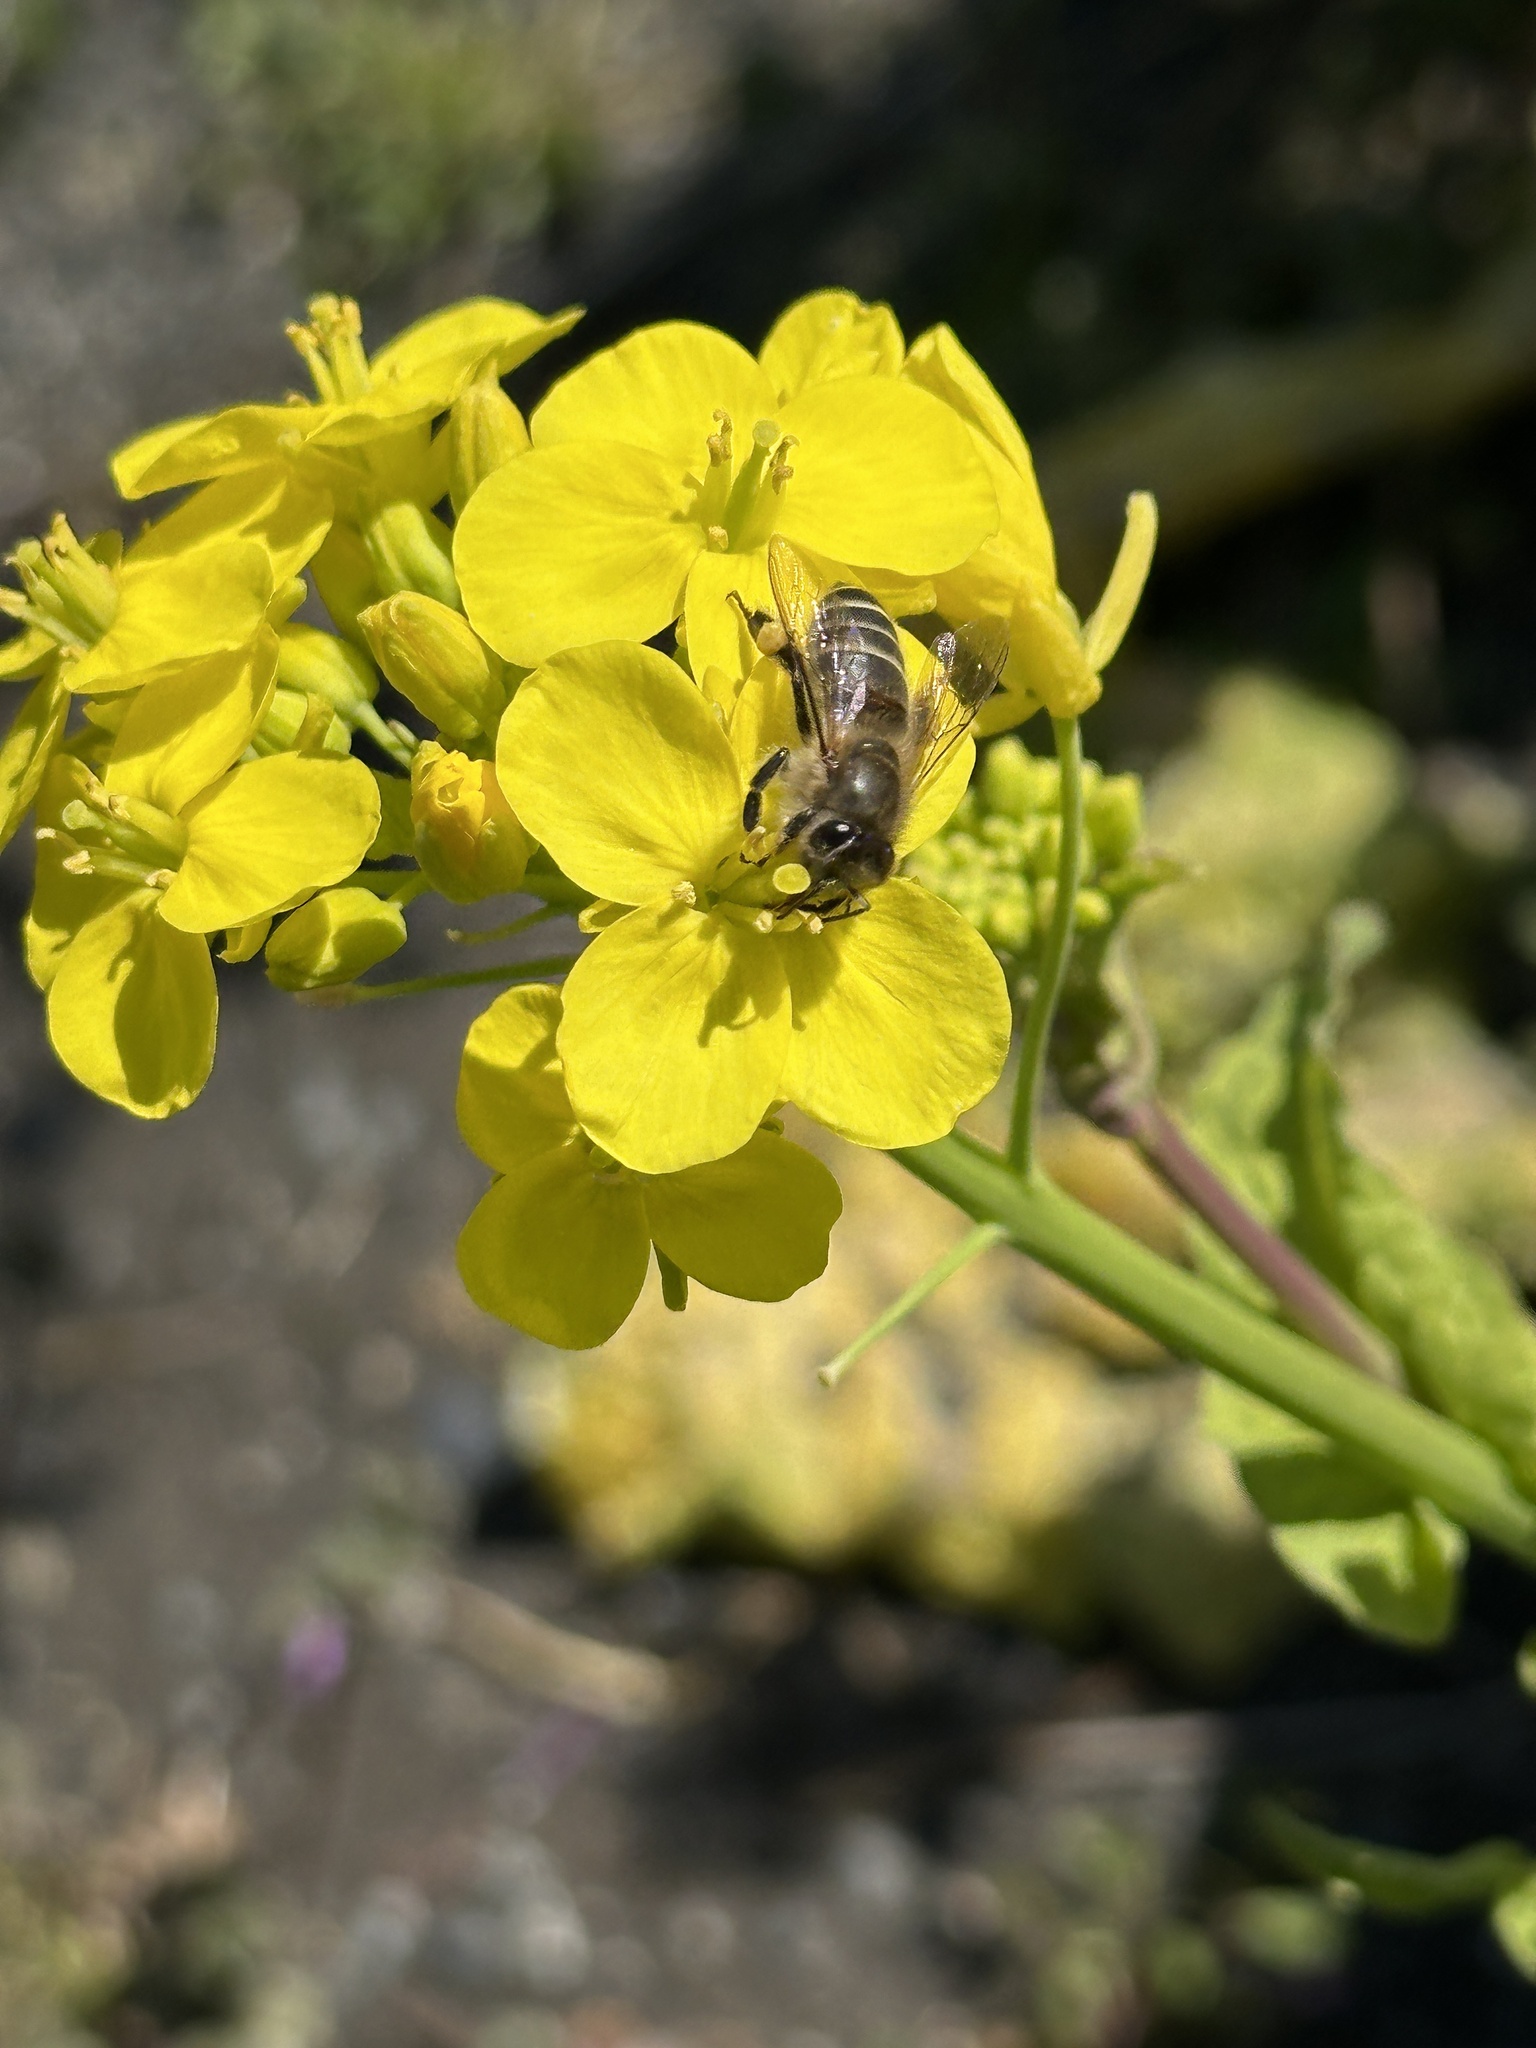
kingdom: Animalia
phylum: Arthropoda
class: Insecta
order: Hymenoptera
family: Apidae
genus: Apis
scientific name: Apis cerana
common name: Honey bee
